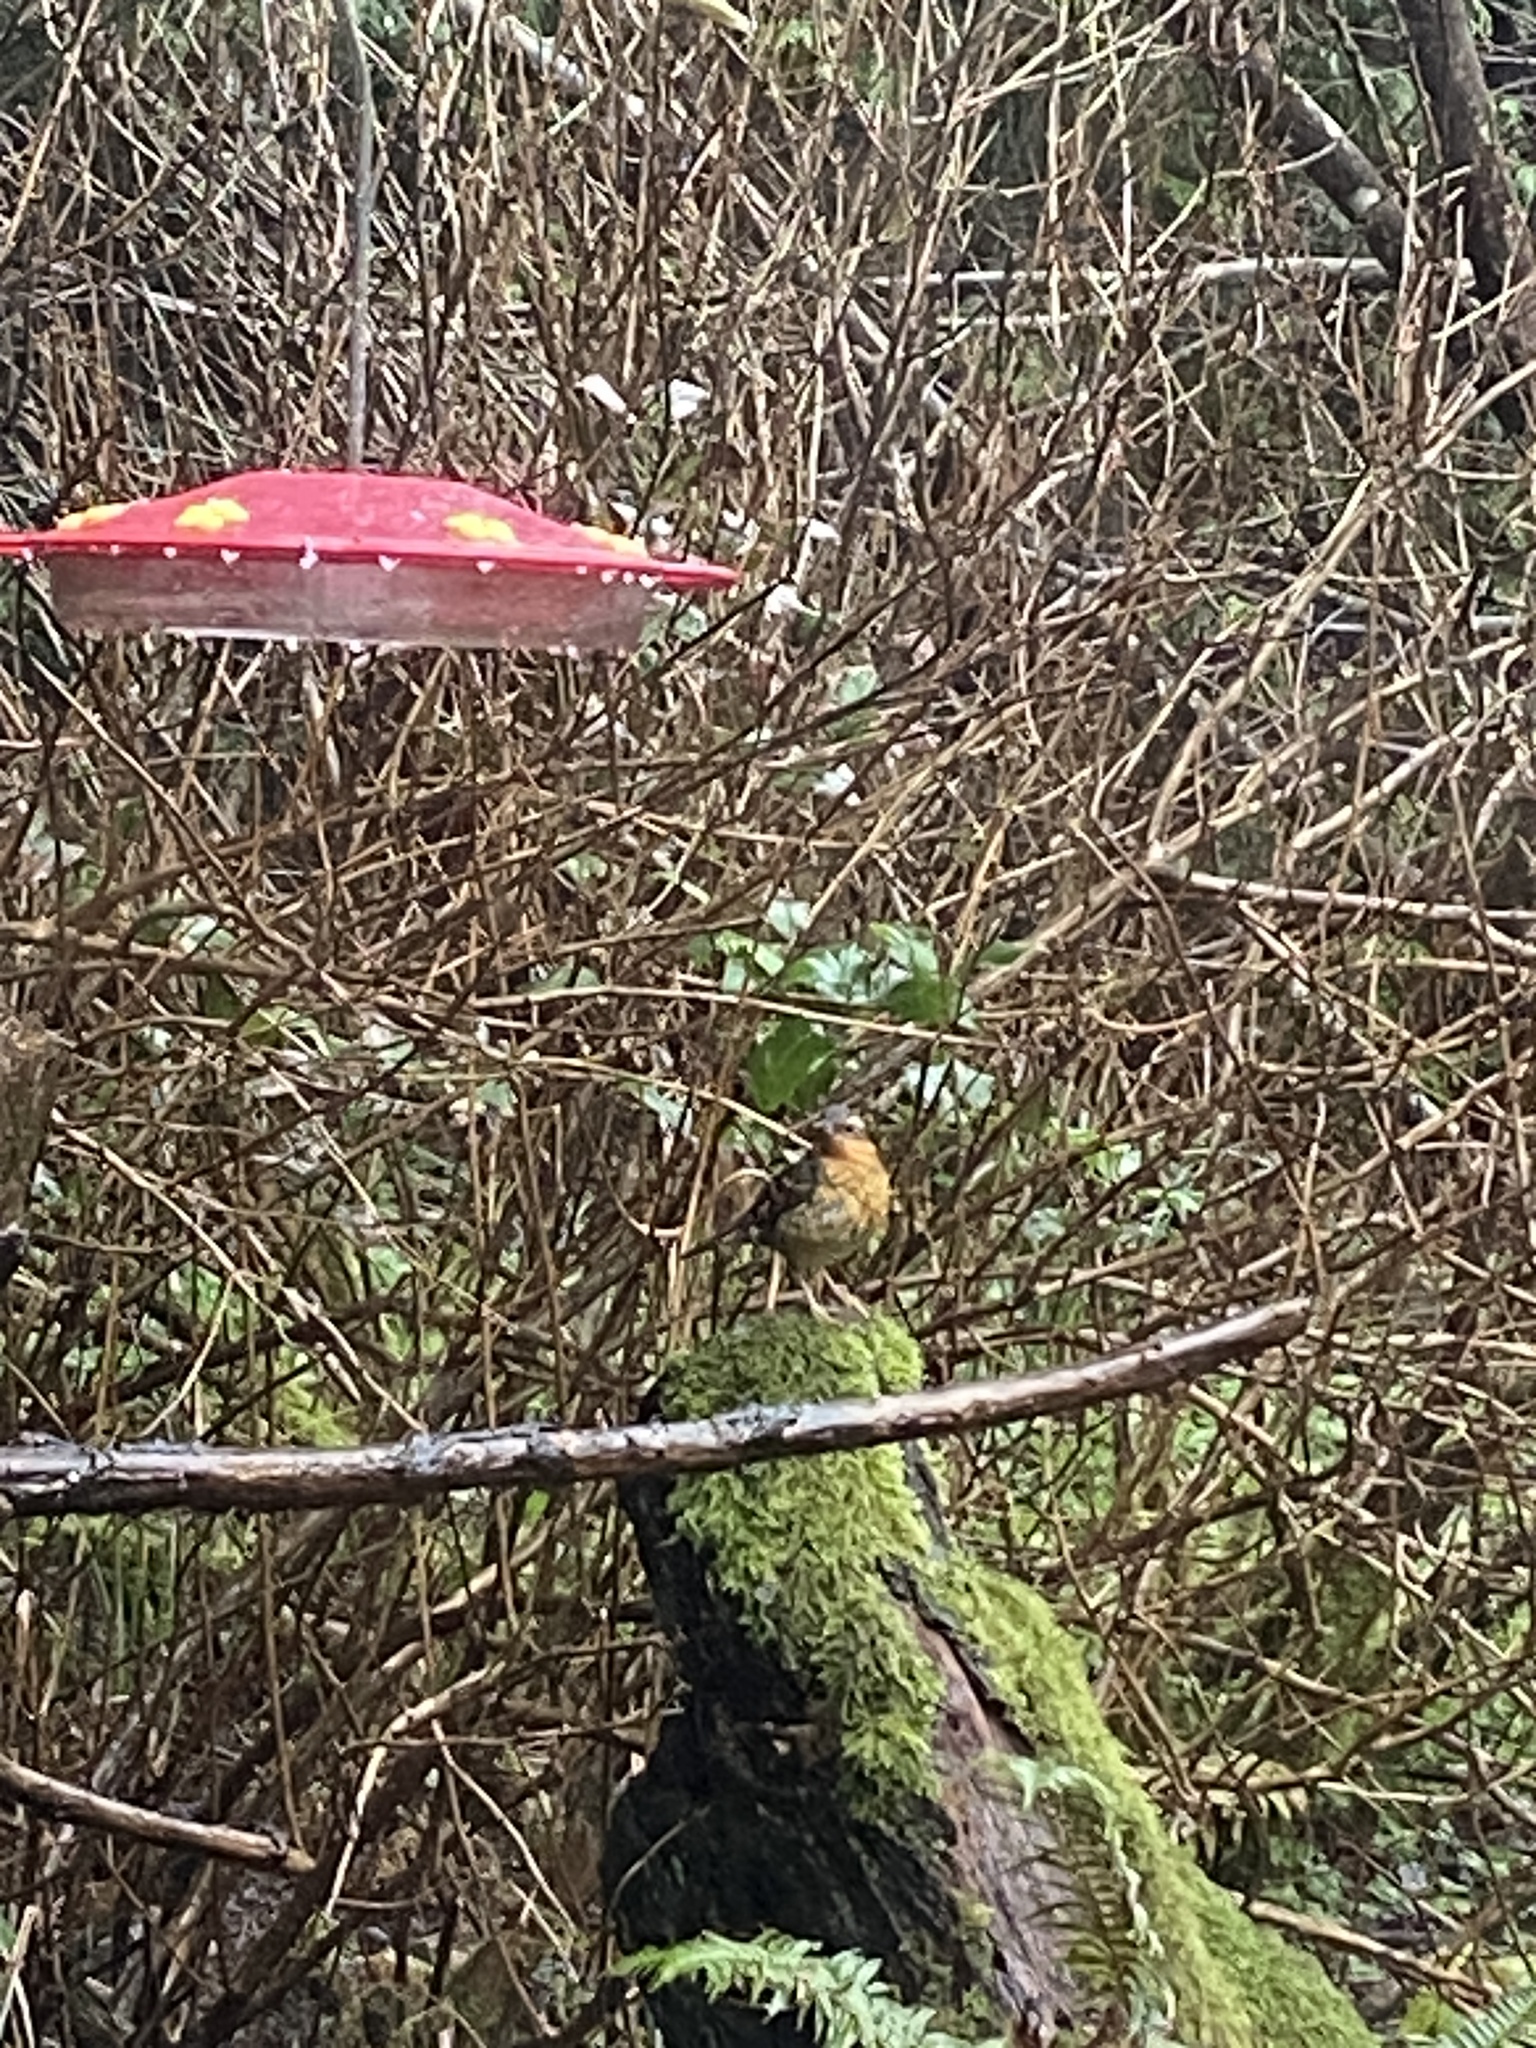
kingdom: Animalia
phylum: Chordata
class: Aves
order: Passeriformes
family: Turdidae
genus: Ixoreus
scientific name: Ixoreus naevius
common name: Varied thrush
